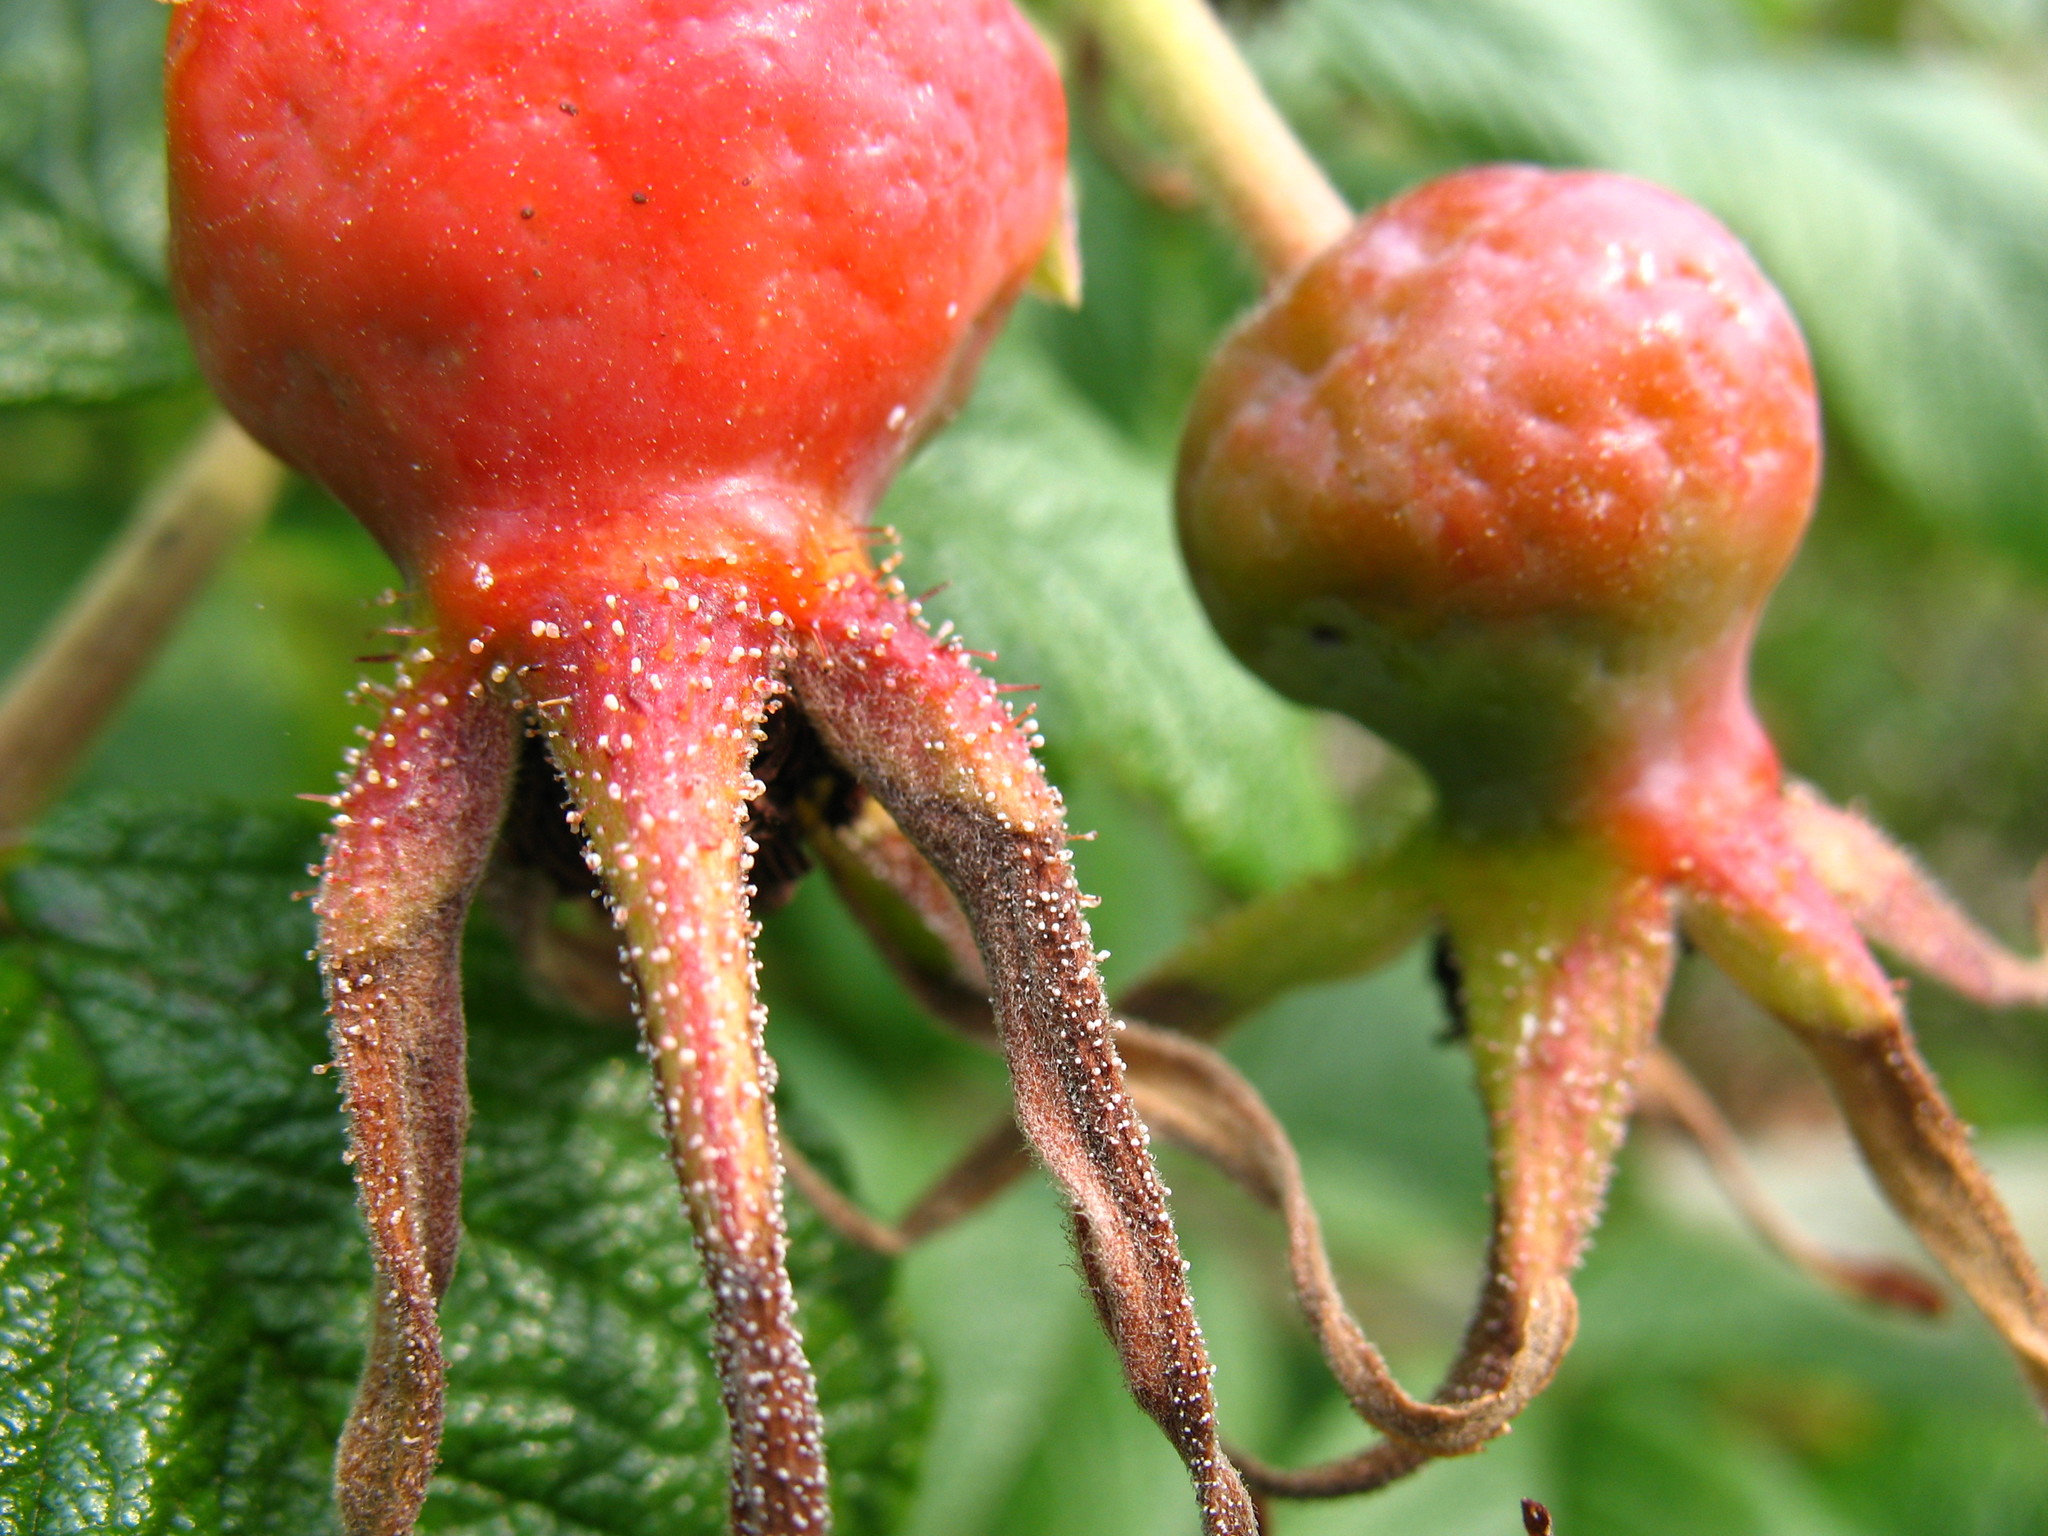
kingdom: Plantae
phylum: Tracheophyta
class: Magnoliopsida
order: Rosales
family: Rosaceae
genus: Rosa
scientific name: Rosa rugosa
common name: Japanese rose
